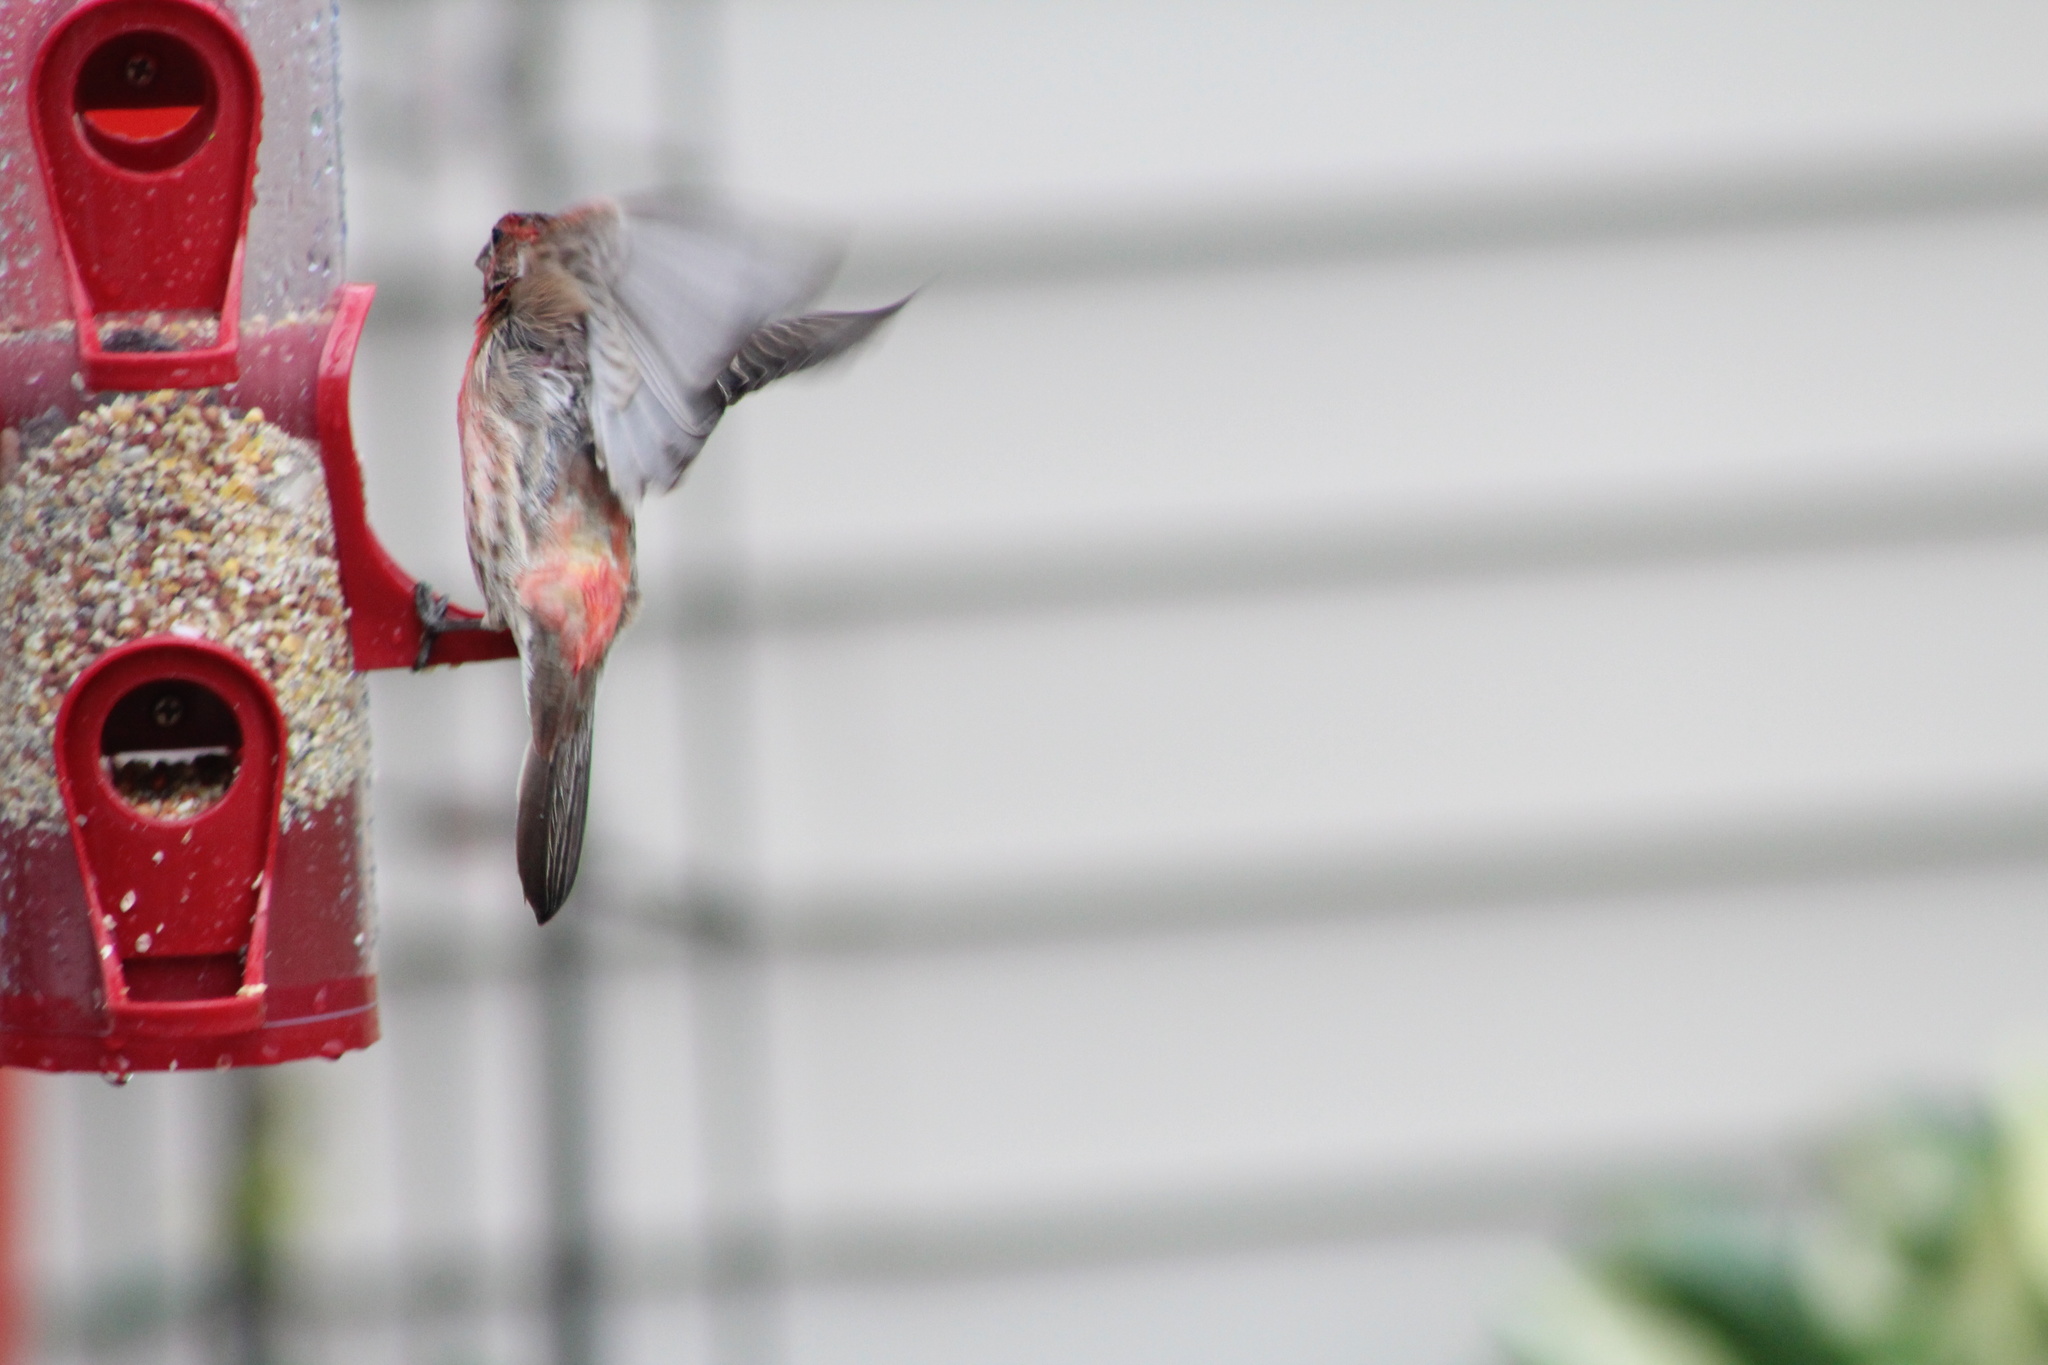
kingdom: Animalia
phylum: Chordata
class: Aves
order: Passeriformes
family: Fringillidae
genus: Haemorhous
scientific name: Haemorhous mexicanus
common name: House finch
